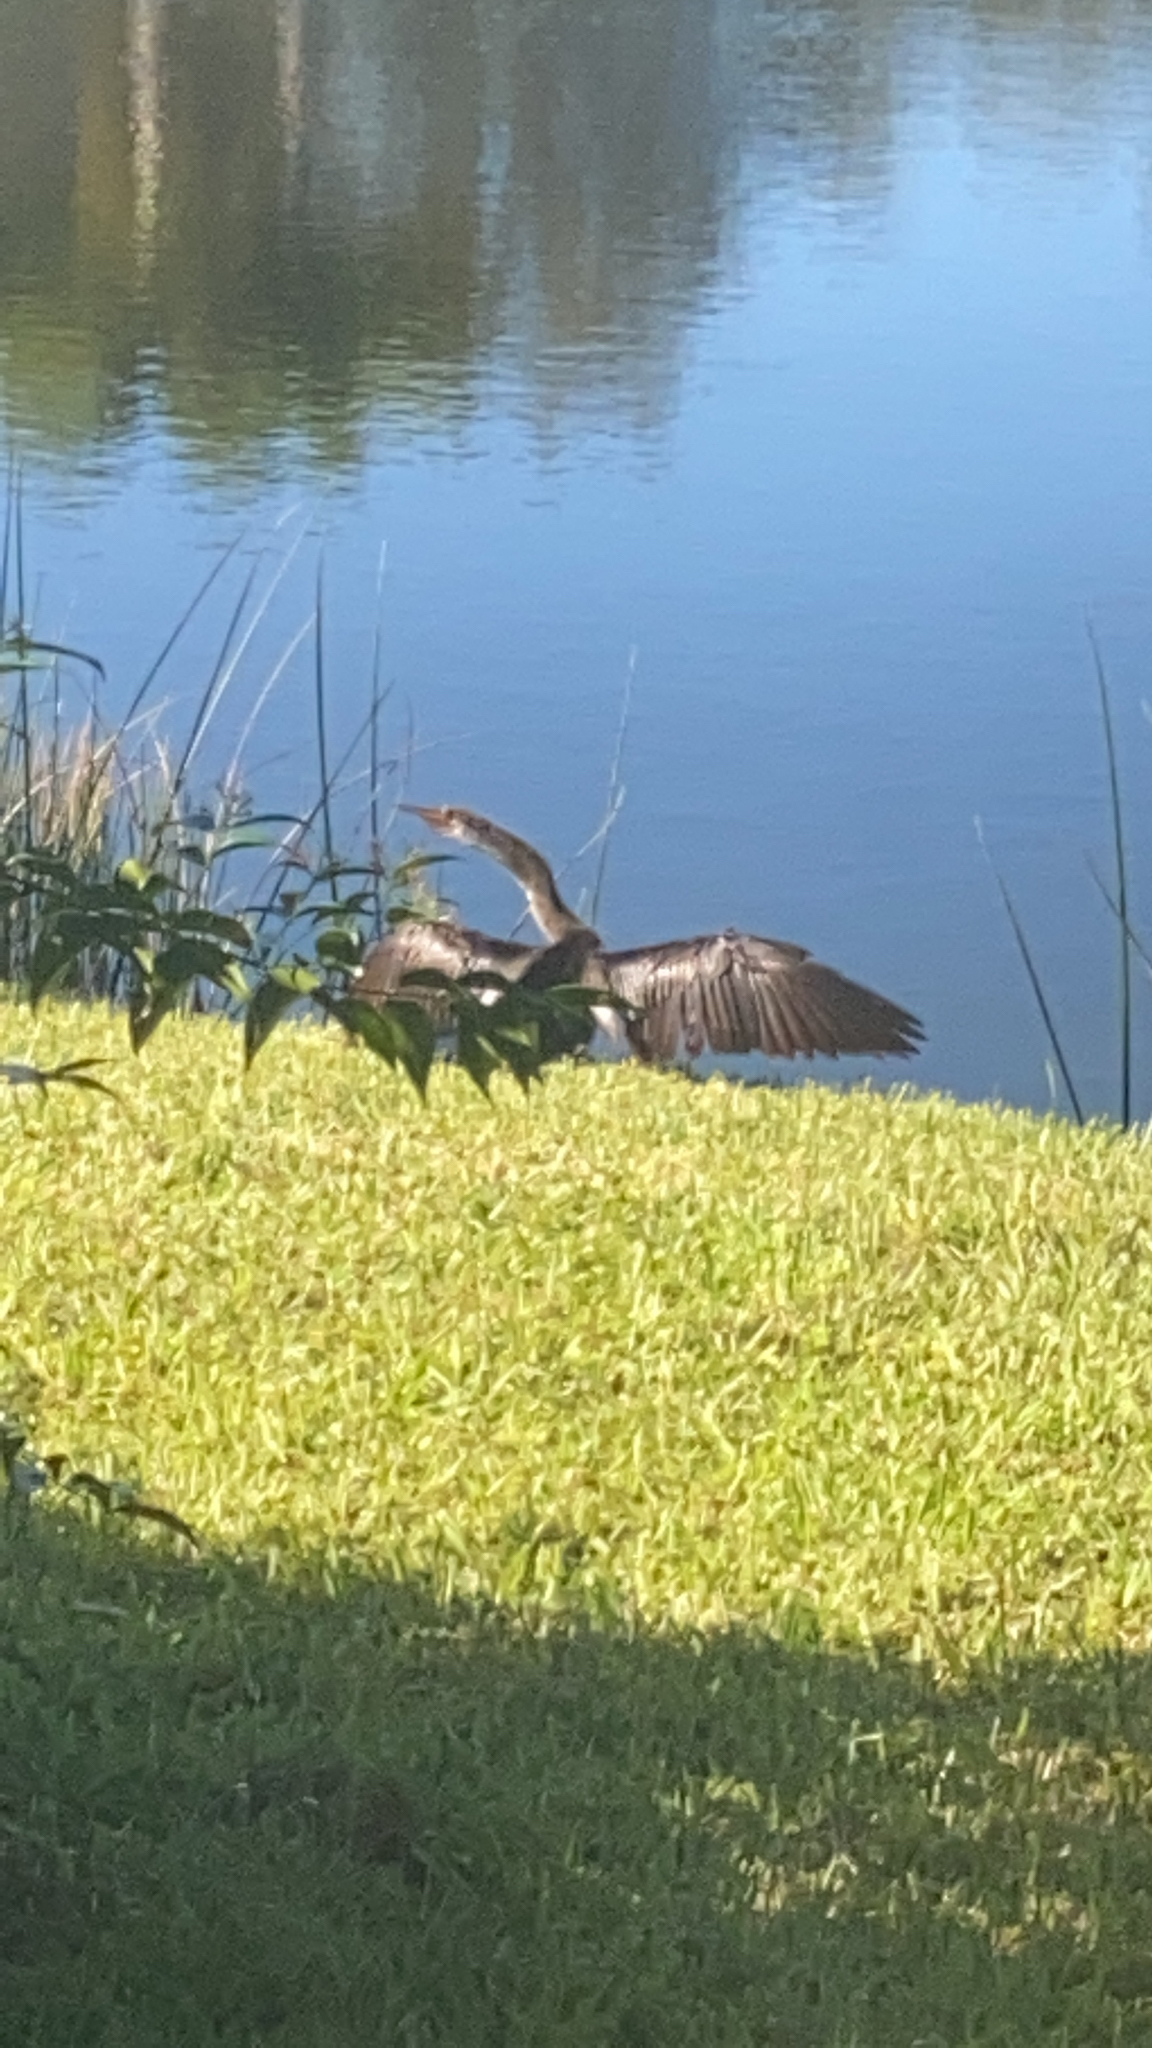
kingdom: Animalia
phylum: Chordata
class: Aves
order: Suliformes
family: Anhingidae
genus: Anhinga
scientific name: Anhinga anhinga
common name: Anhinga
